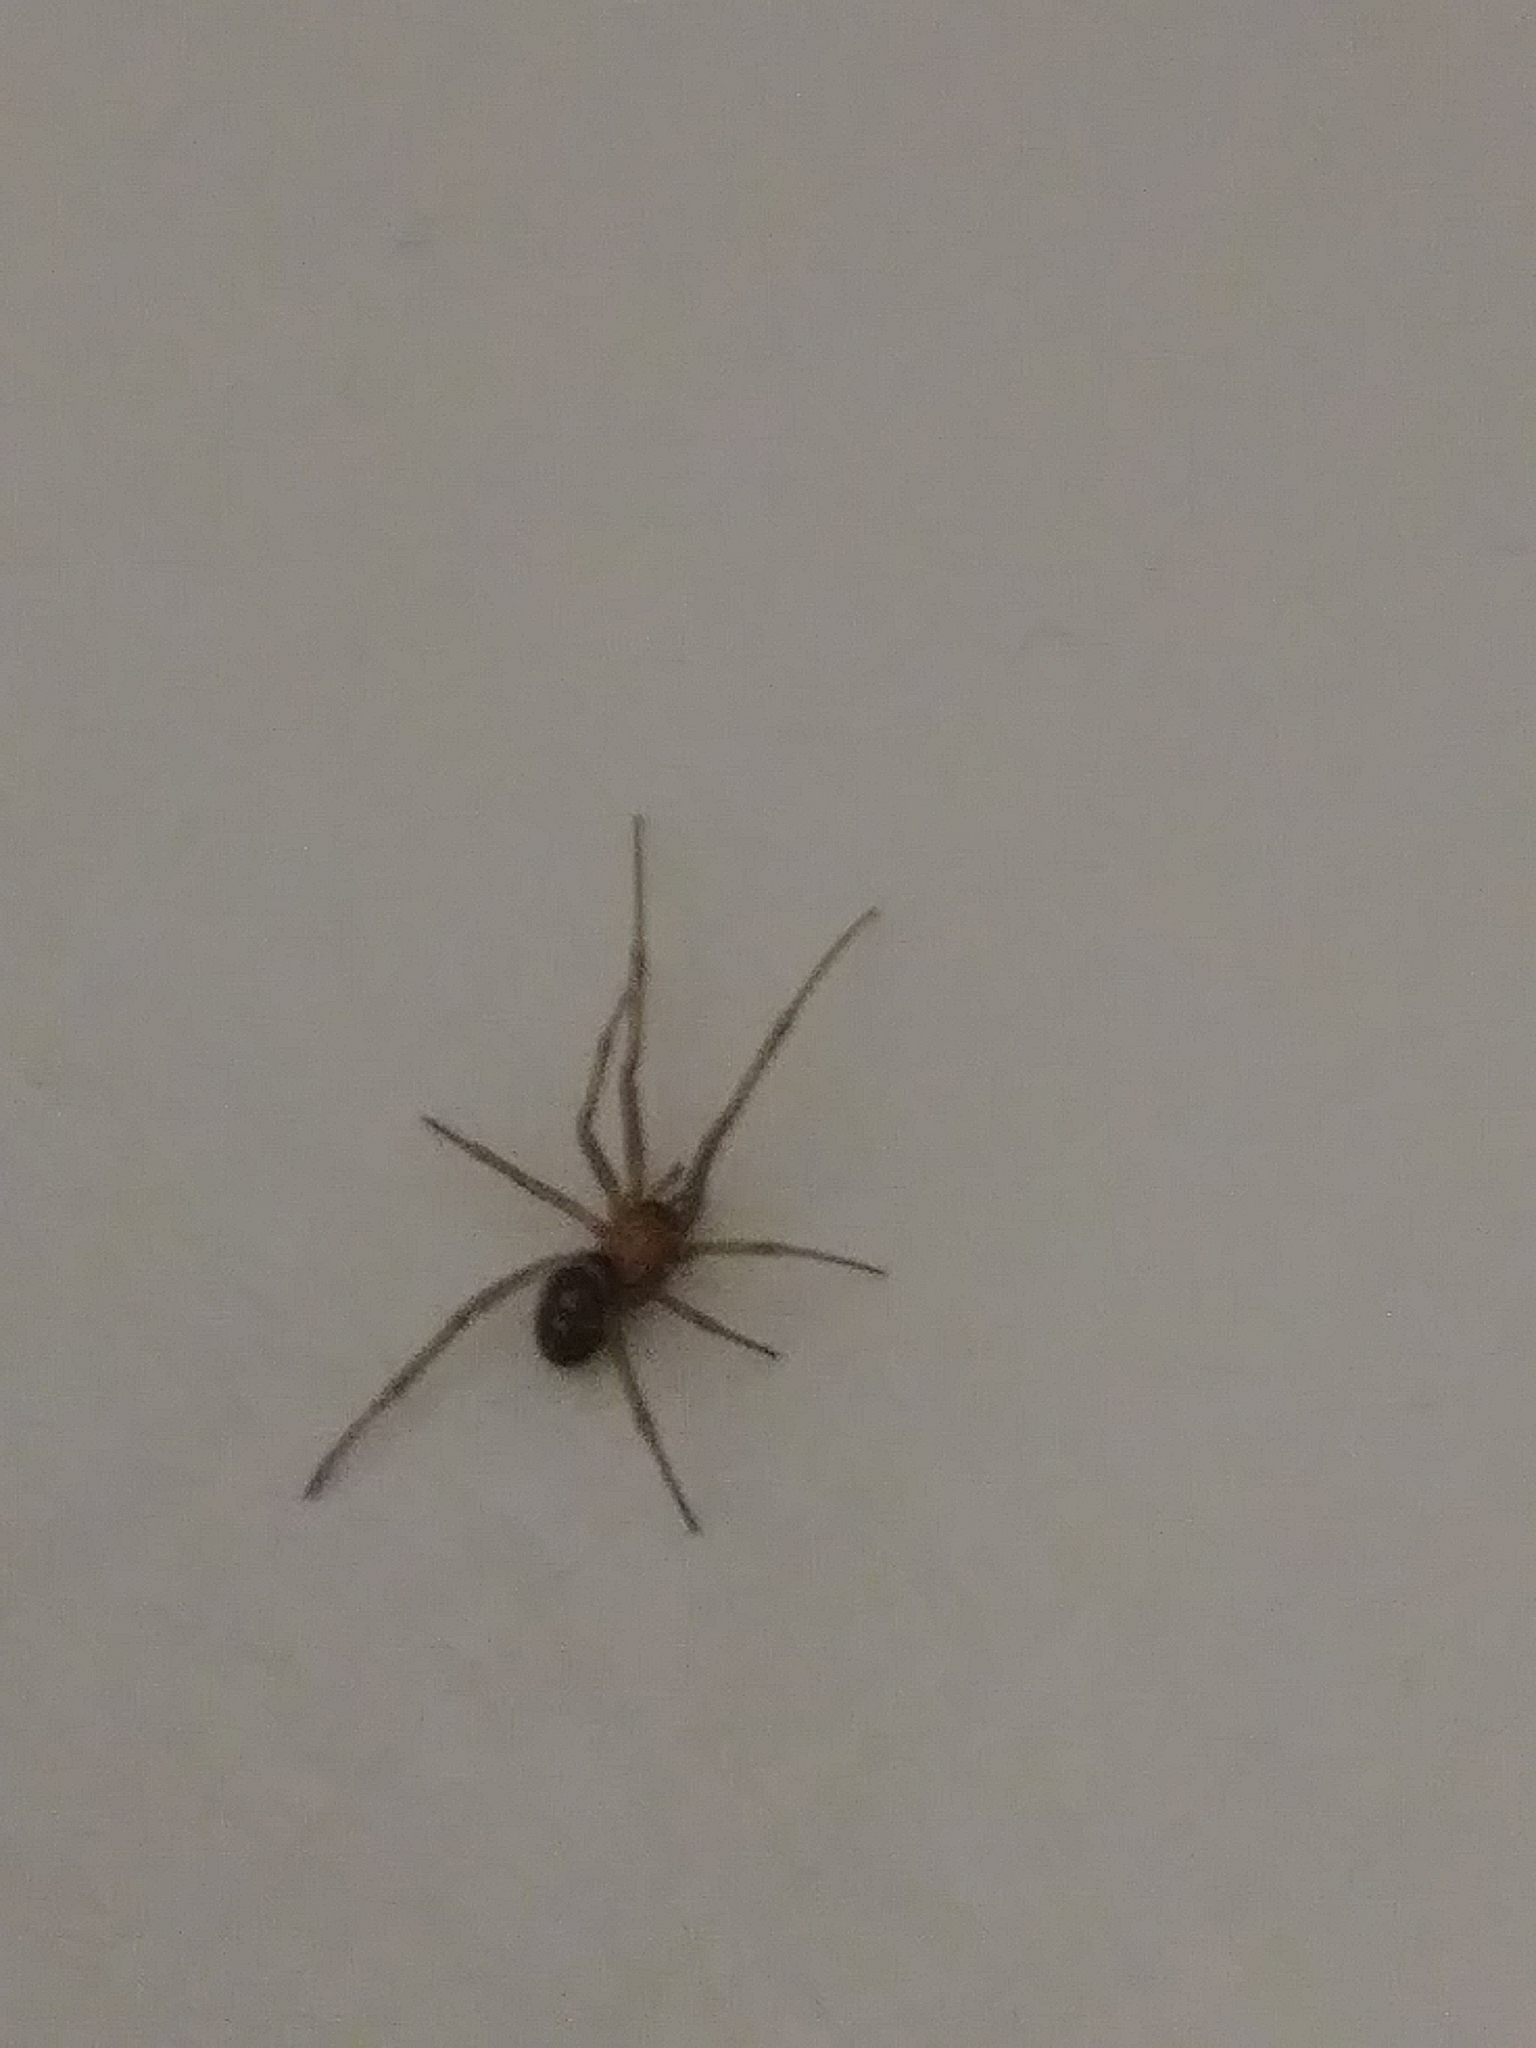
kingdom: Animalia
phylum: Arthropoda
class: Arachnida
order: Araneae
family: Theridiidae
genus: Steatoda
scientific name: Steatoda grossa
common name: False black widow
